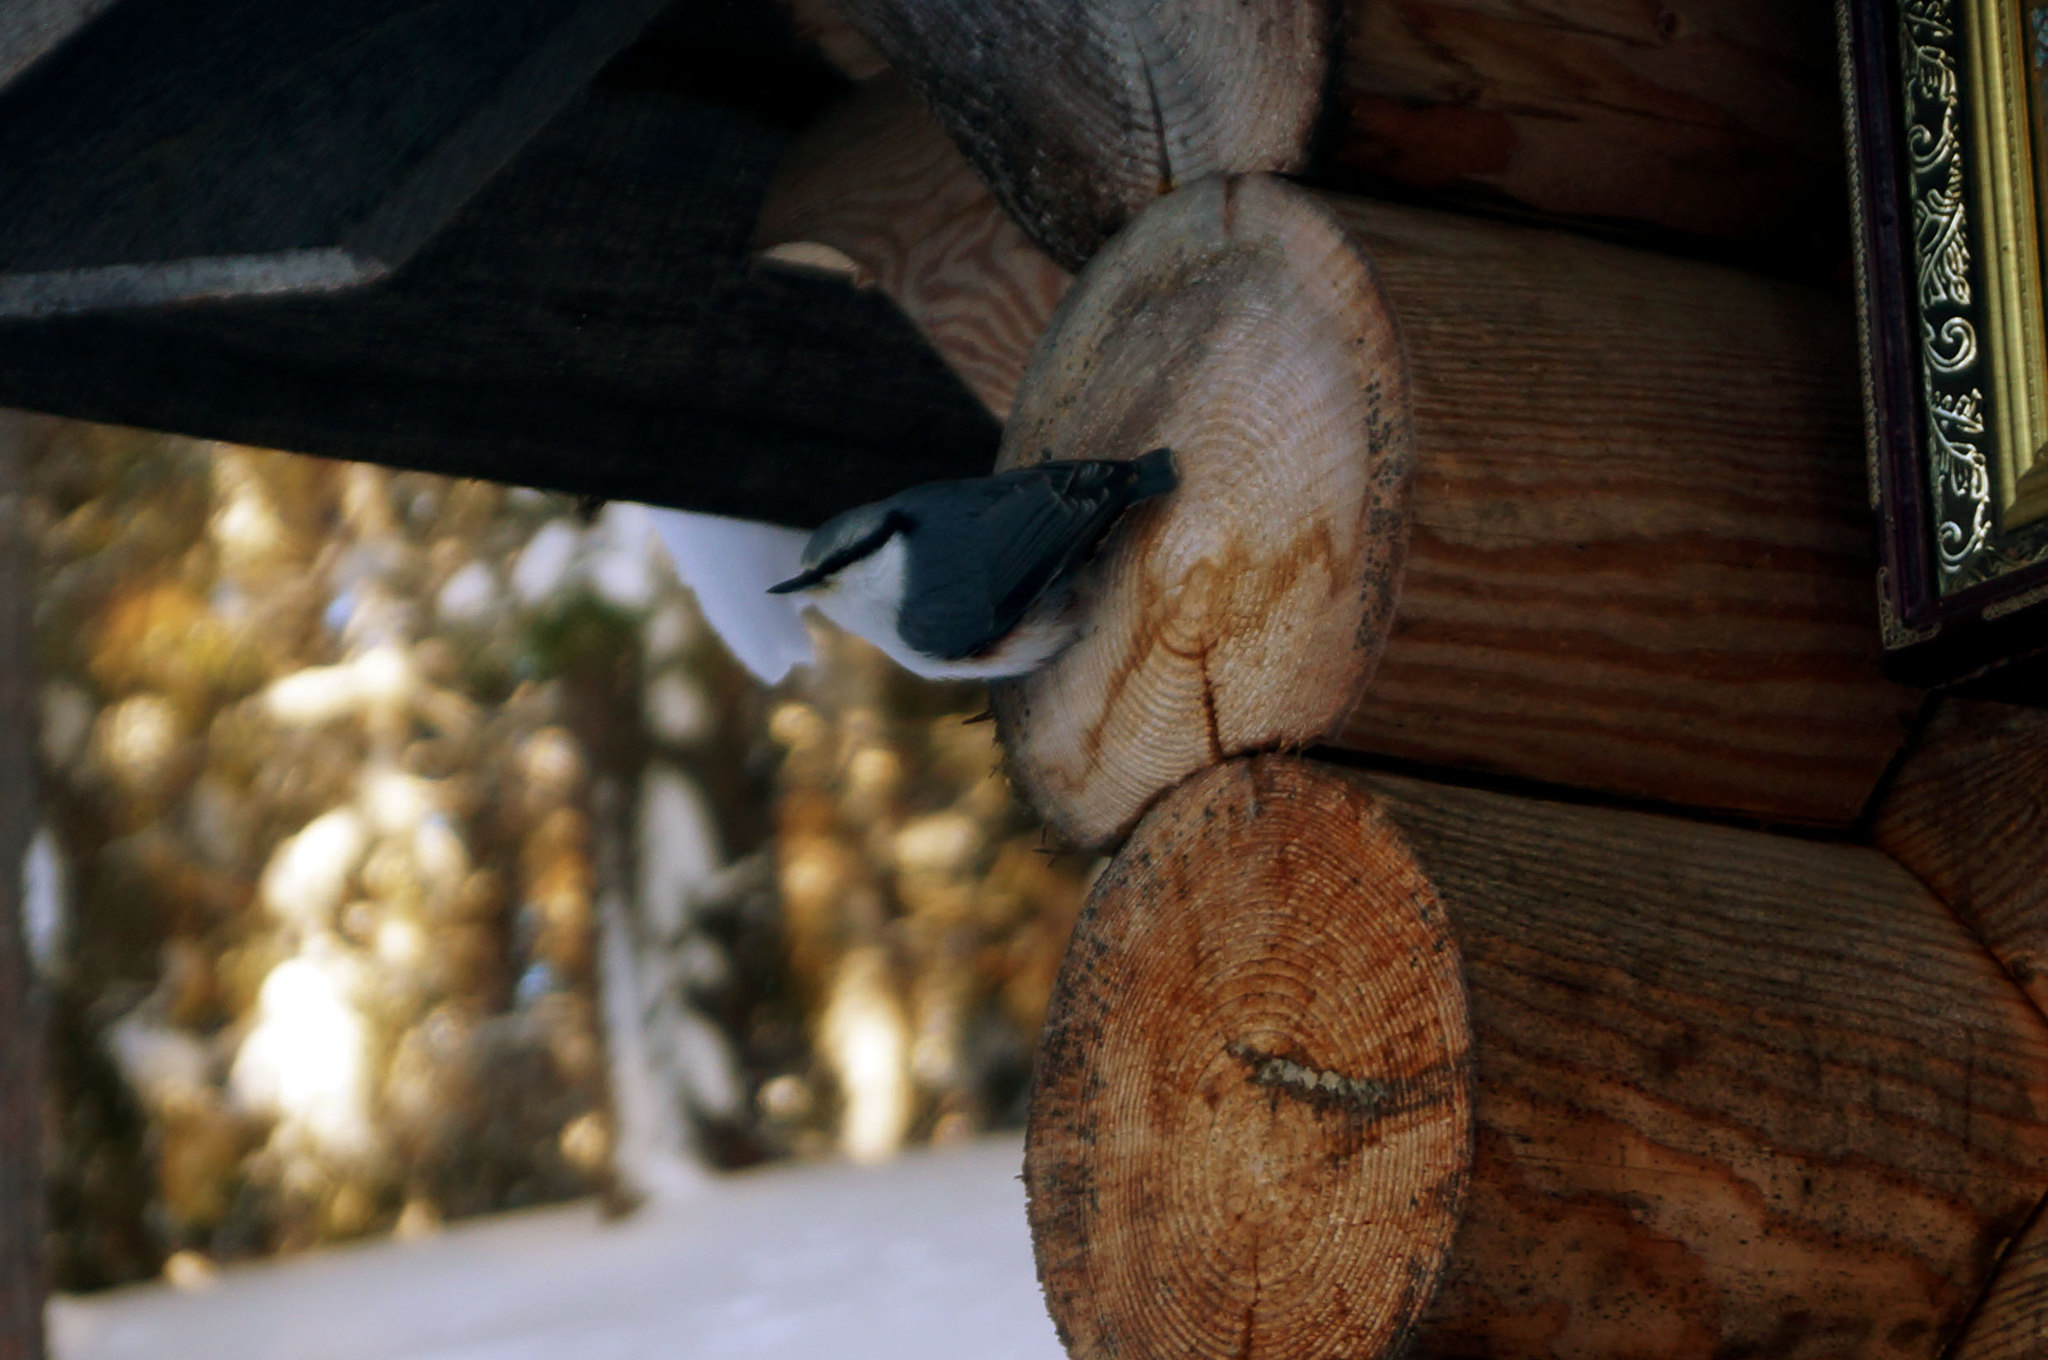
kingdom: Animalia
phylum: Chordata
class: Aves
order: Passeriformes
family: Sittidae
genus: Sitta
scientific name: Sitta europaea
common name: Eurasian nuthatch
